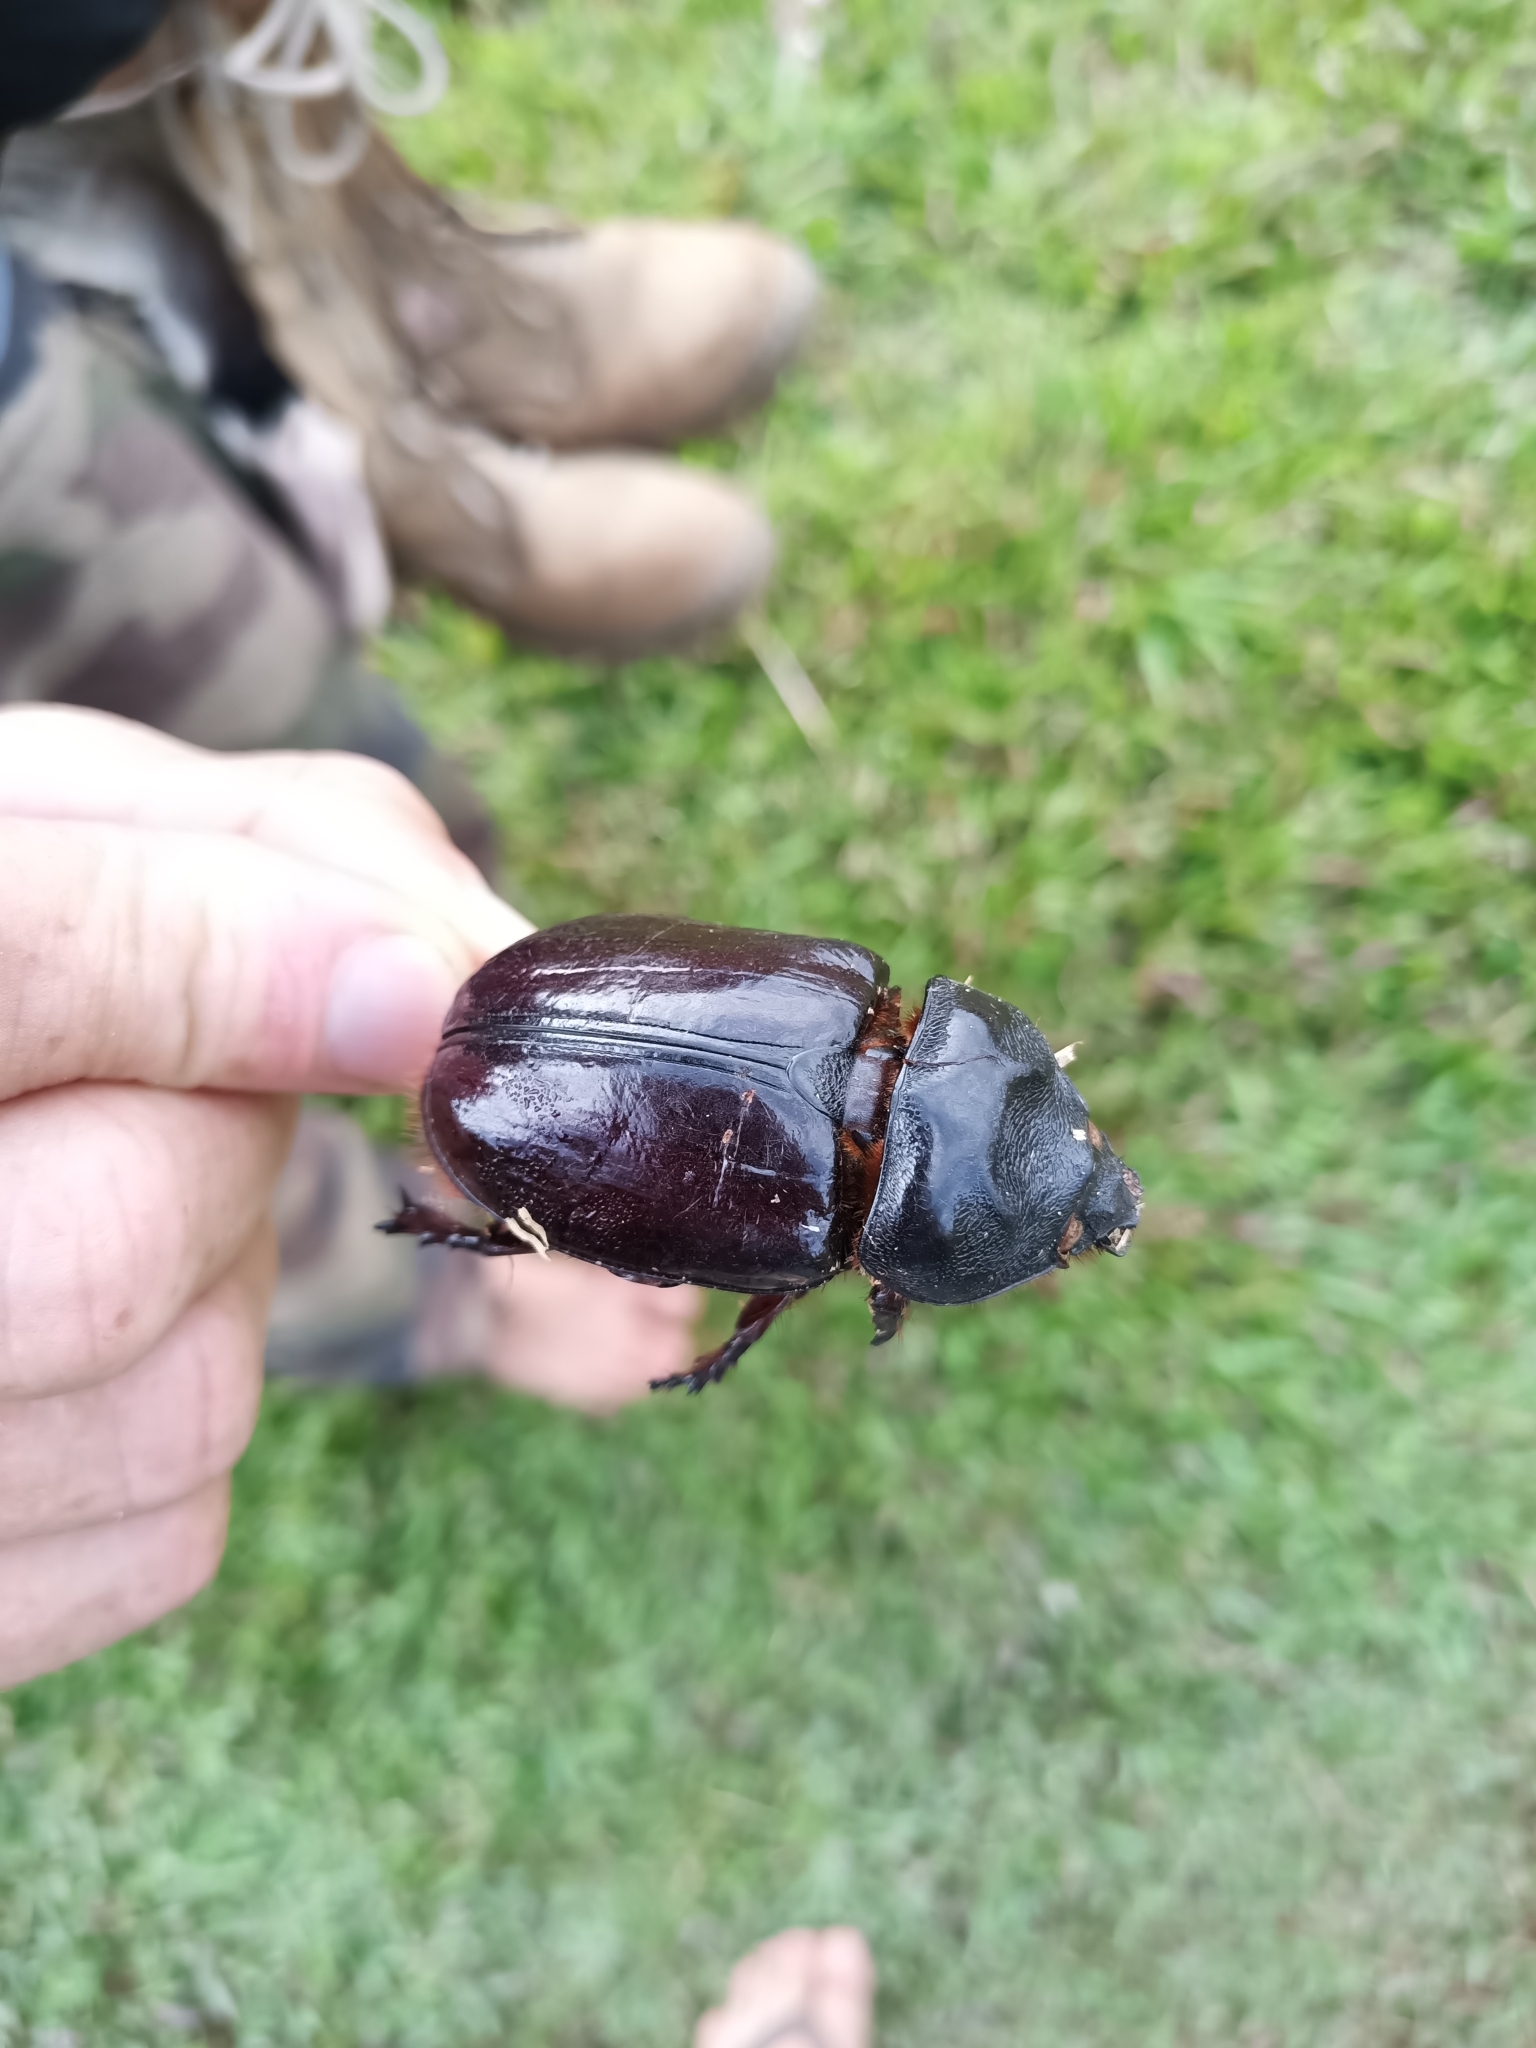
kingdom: Animalia
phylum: Arthropoda
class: Insecta
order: Coleoptera
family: Scarabaeidae
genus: Strategus
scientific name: Strategus aloeus
